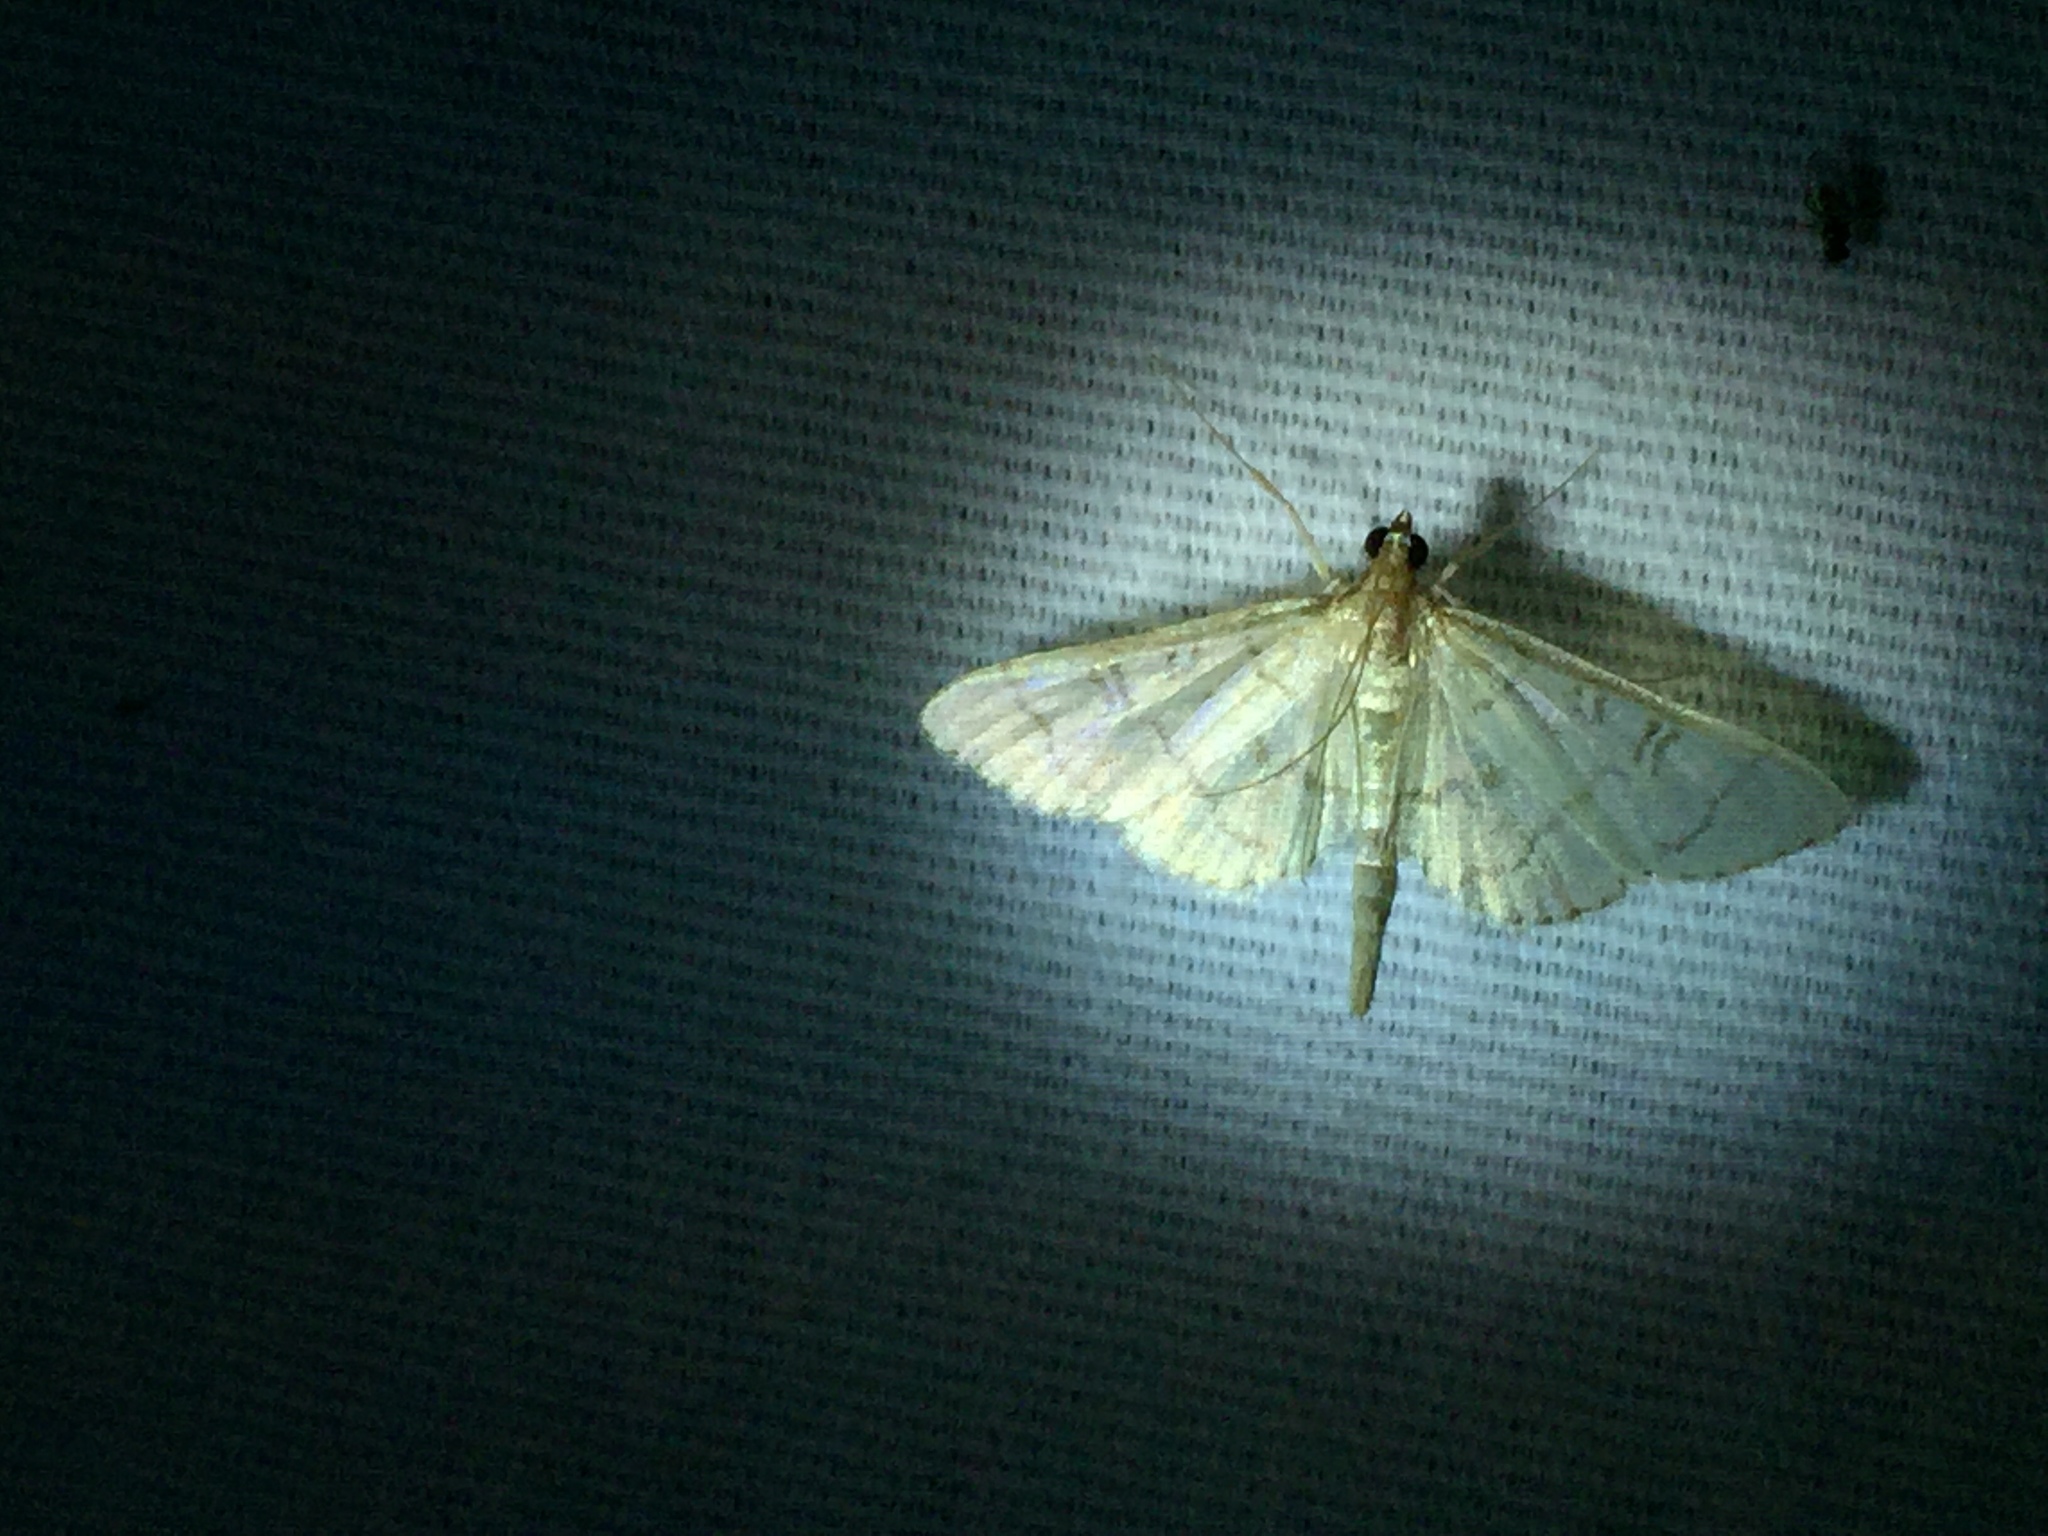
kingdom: Animalia
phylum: Arthropoda
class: Insecta
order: Lepidoptera
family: Crambidae
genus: Lamprosema
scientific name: Lamprosema Blepharomastix ranalis
